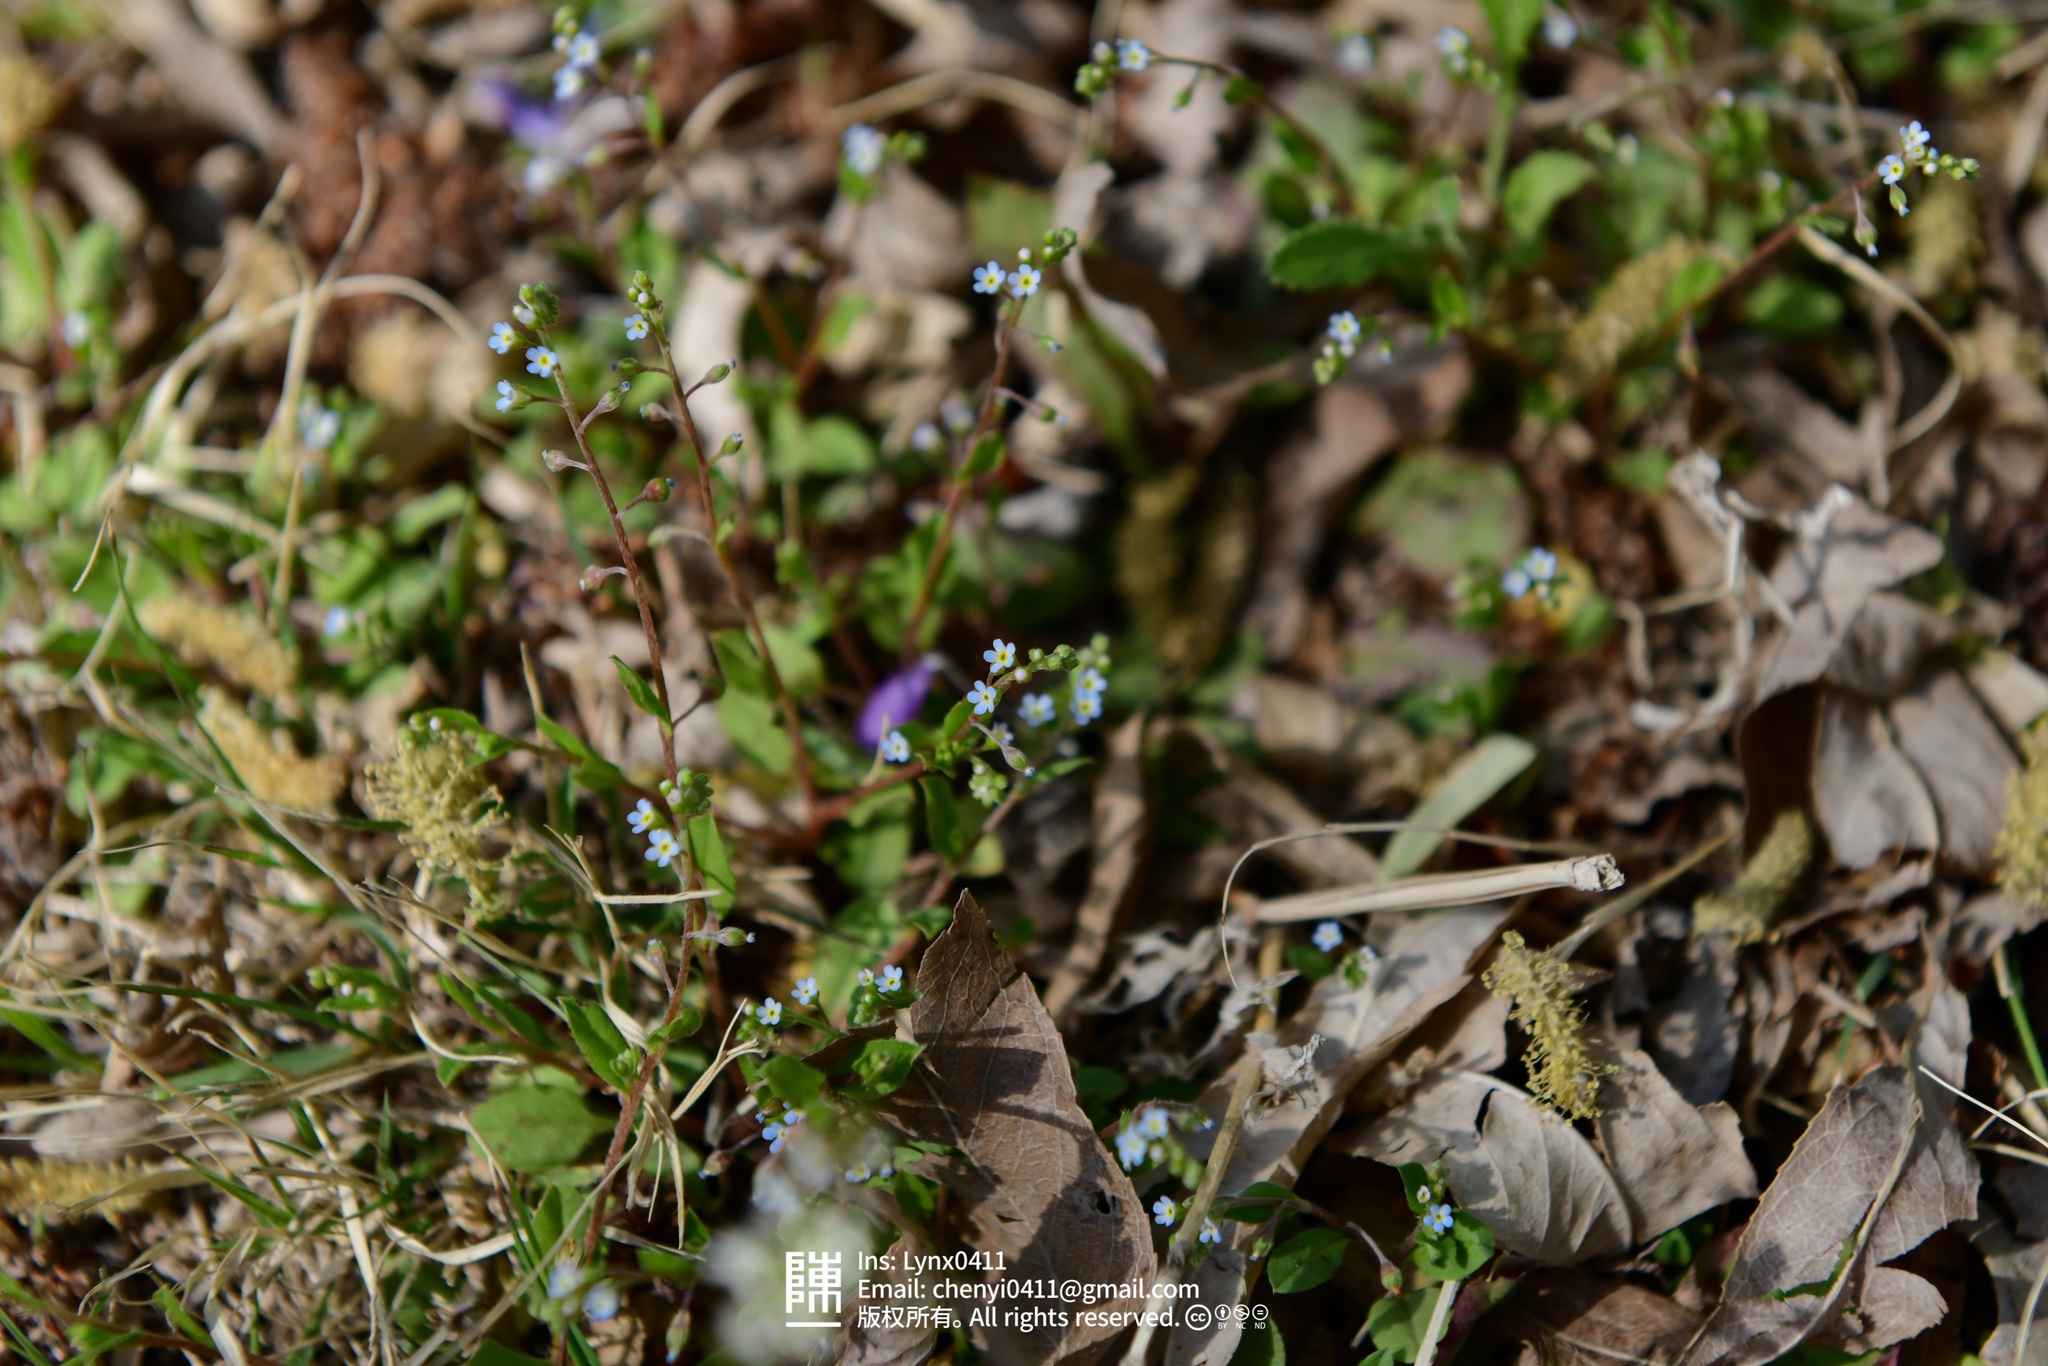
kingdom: Plantae
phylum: Tracheophyta
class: Magnoliopsida
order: Boraginales
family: Boraginaceae
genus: Trigonotis
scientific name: Trigonotis peduncularis
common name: Cucumber herb
